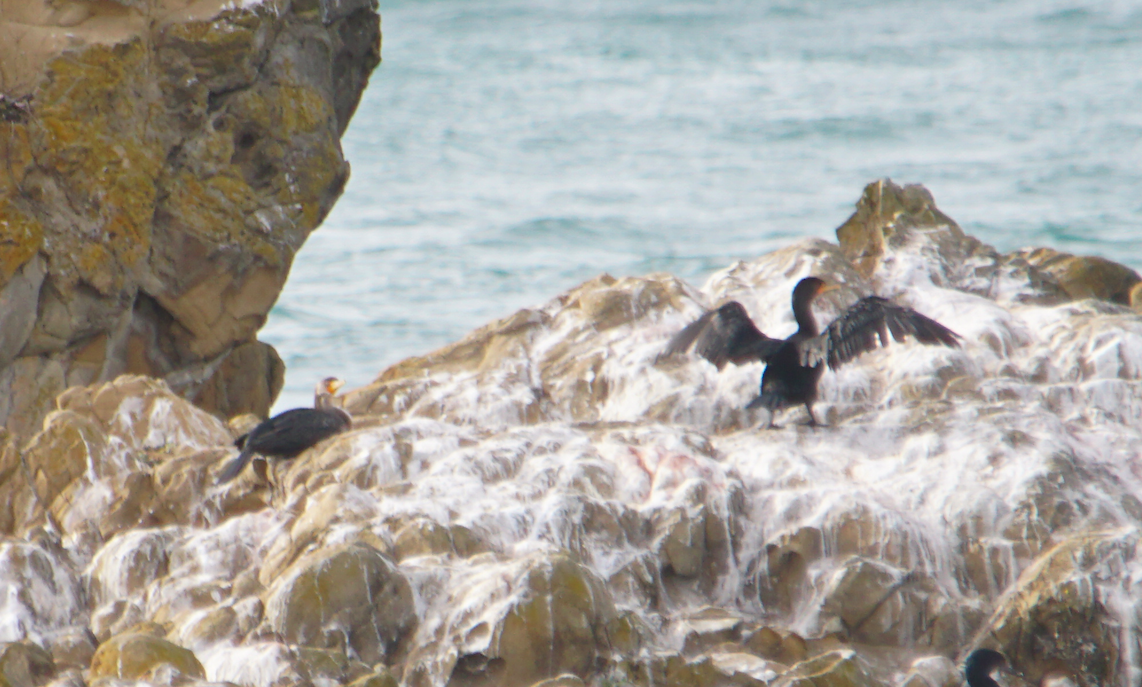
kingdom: Animalia
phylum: Chordata
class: Aves
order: Suliformes
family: Phalacrocoracidae
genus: Phalacrocorax
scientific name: Phalacrocorax auritus
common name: Double-crested cormorant
